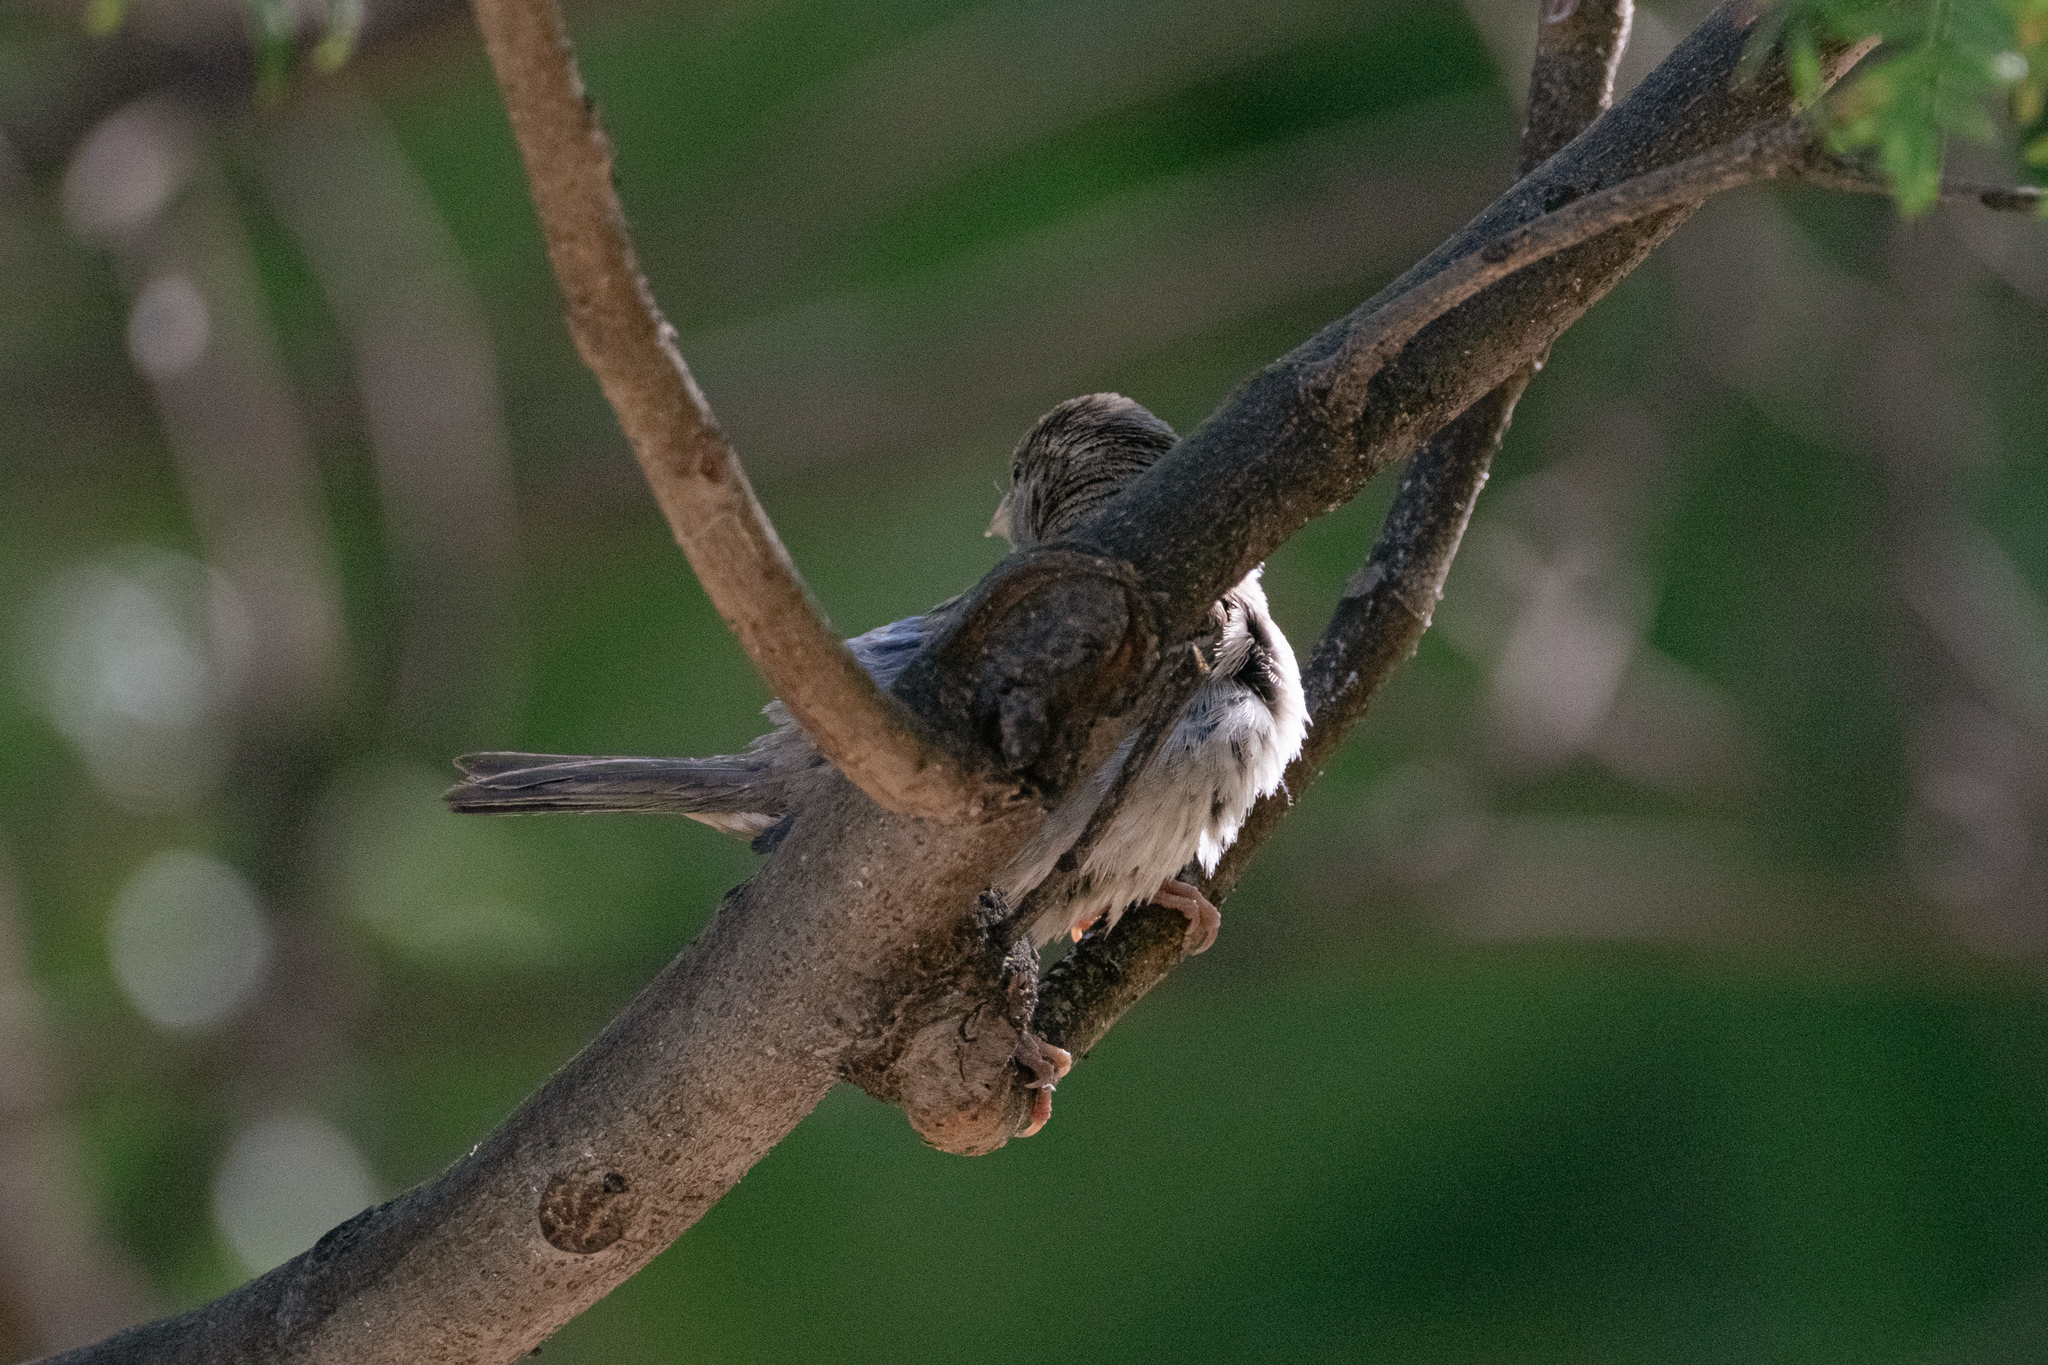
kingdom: Animalia
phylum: Chordata
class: Aves
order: Passeriformes
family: Passeridae
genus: Passer
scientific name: Passer domesticus
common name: House sparrow
